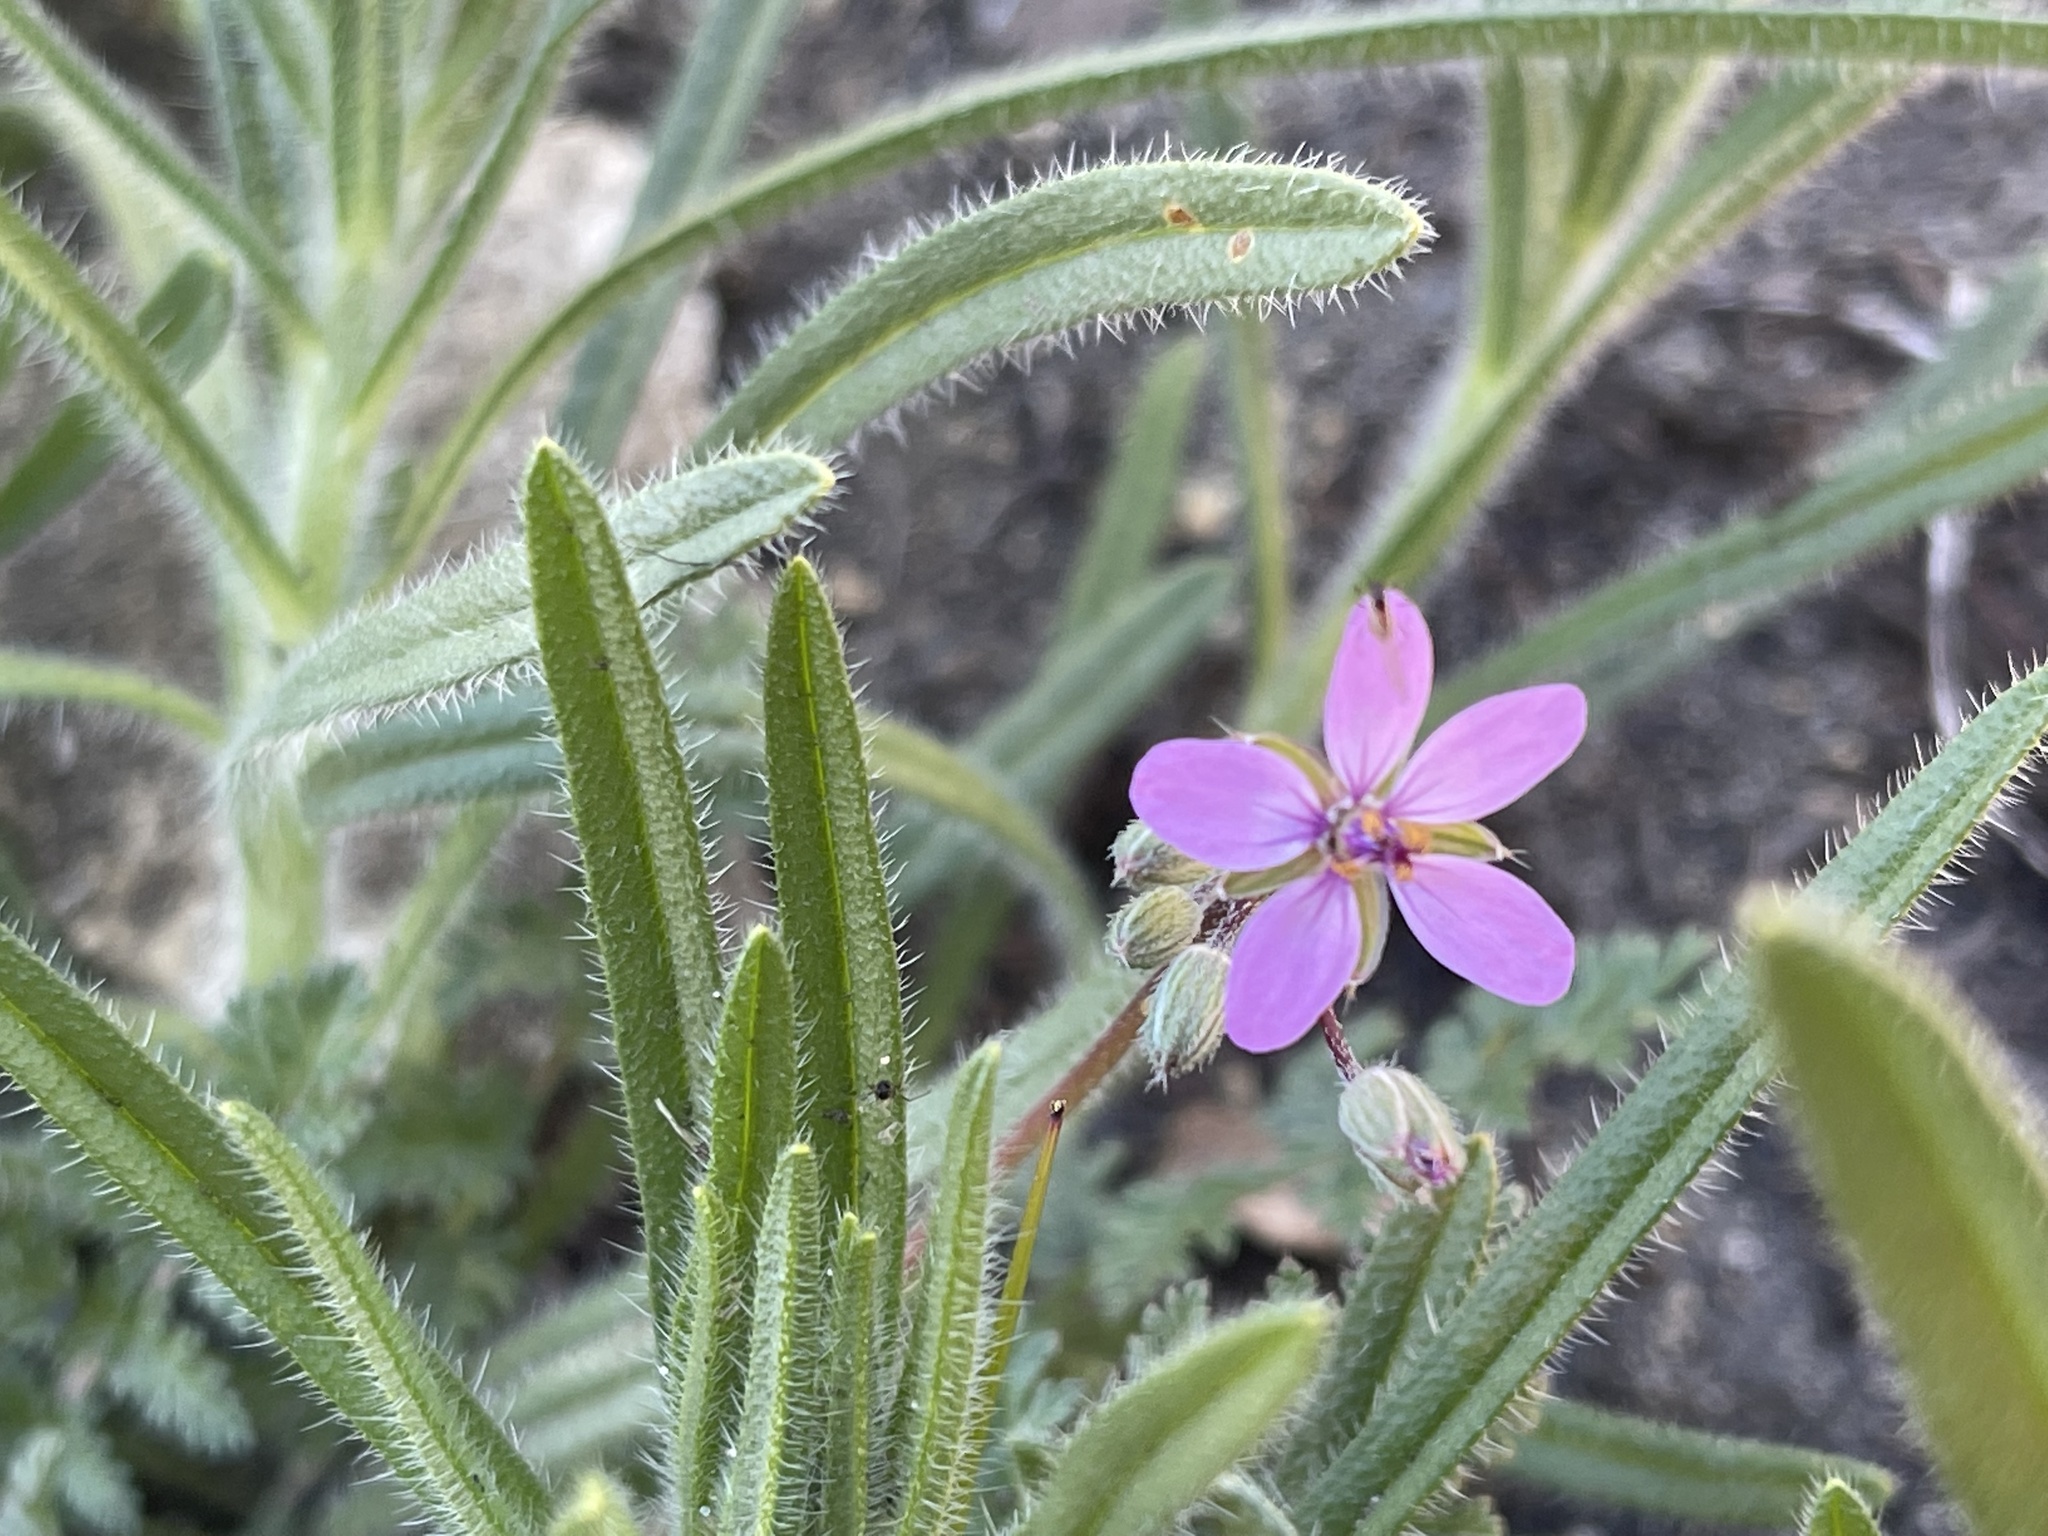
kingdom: Plantae
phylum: Tracheophyta
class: Magnoliopsida
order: Geraniales
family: Geraniaceae
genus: Erodium
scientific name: Erodium cicutarium
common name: Common stork's-bill
